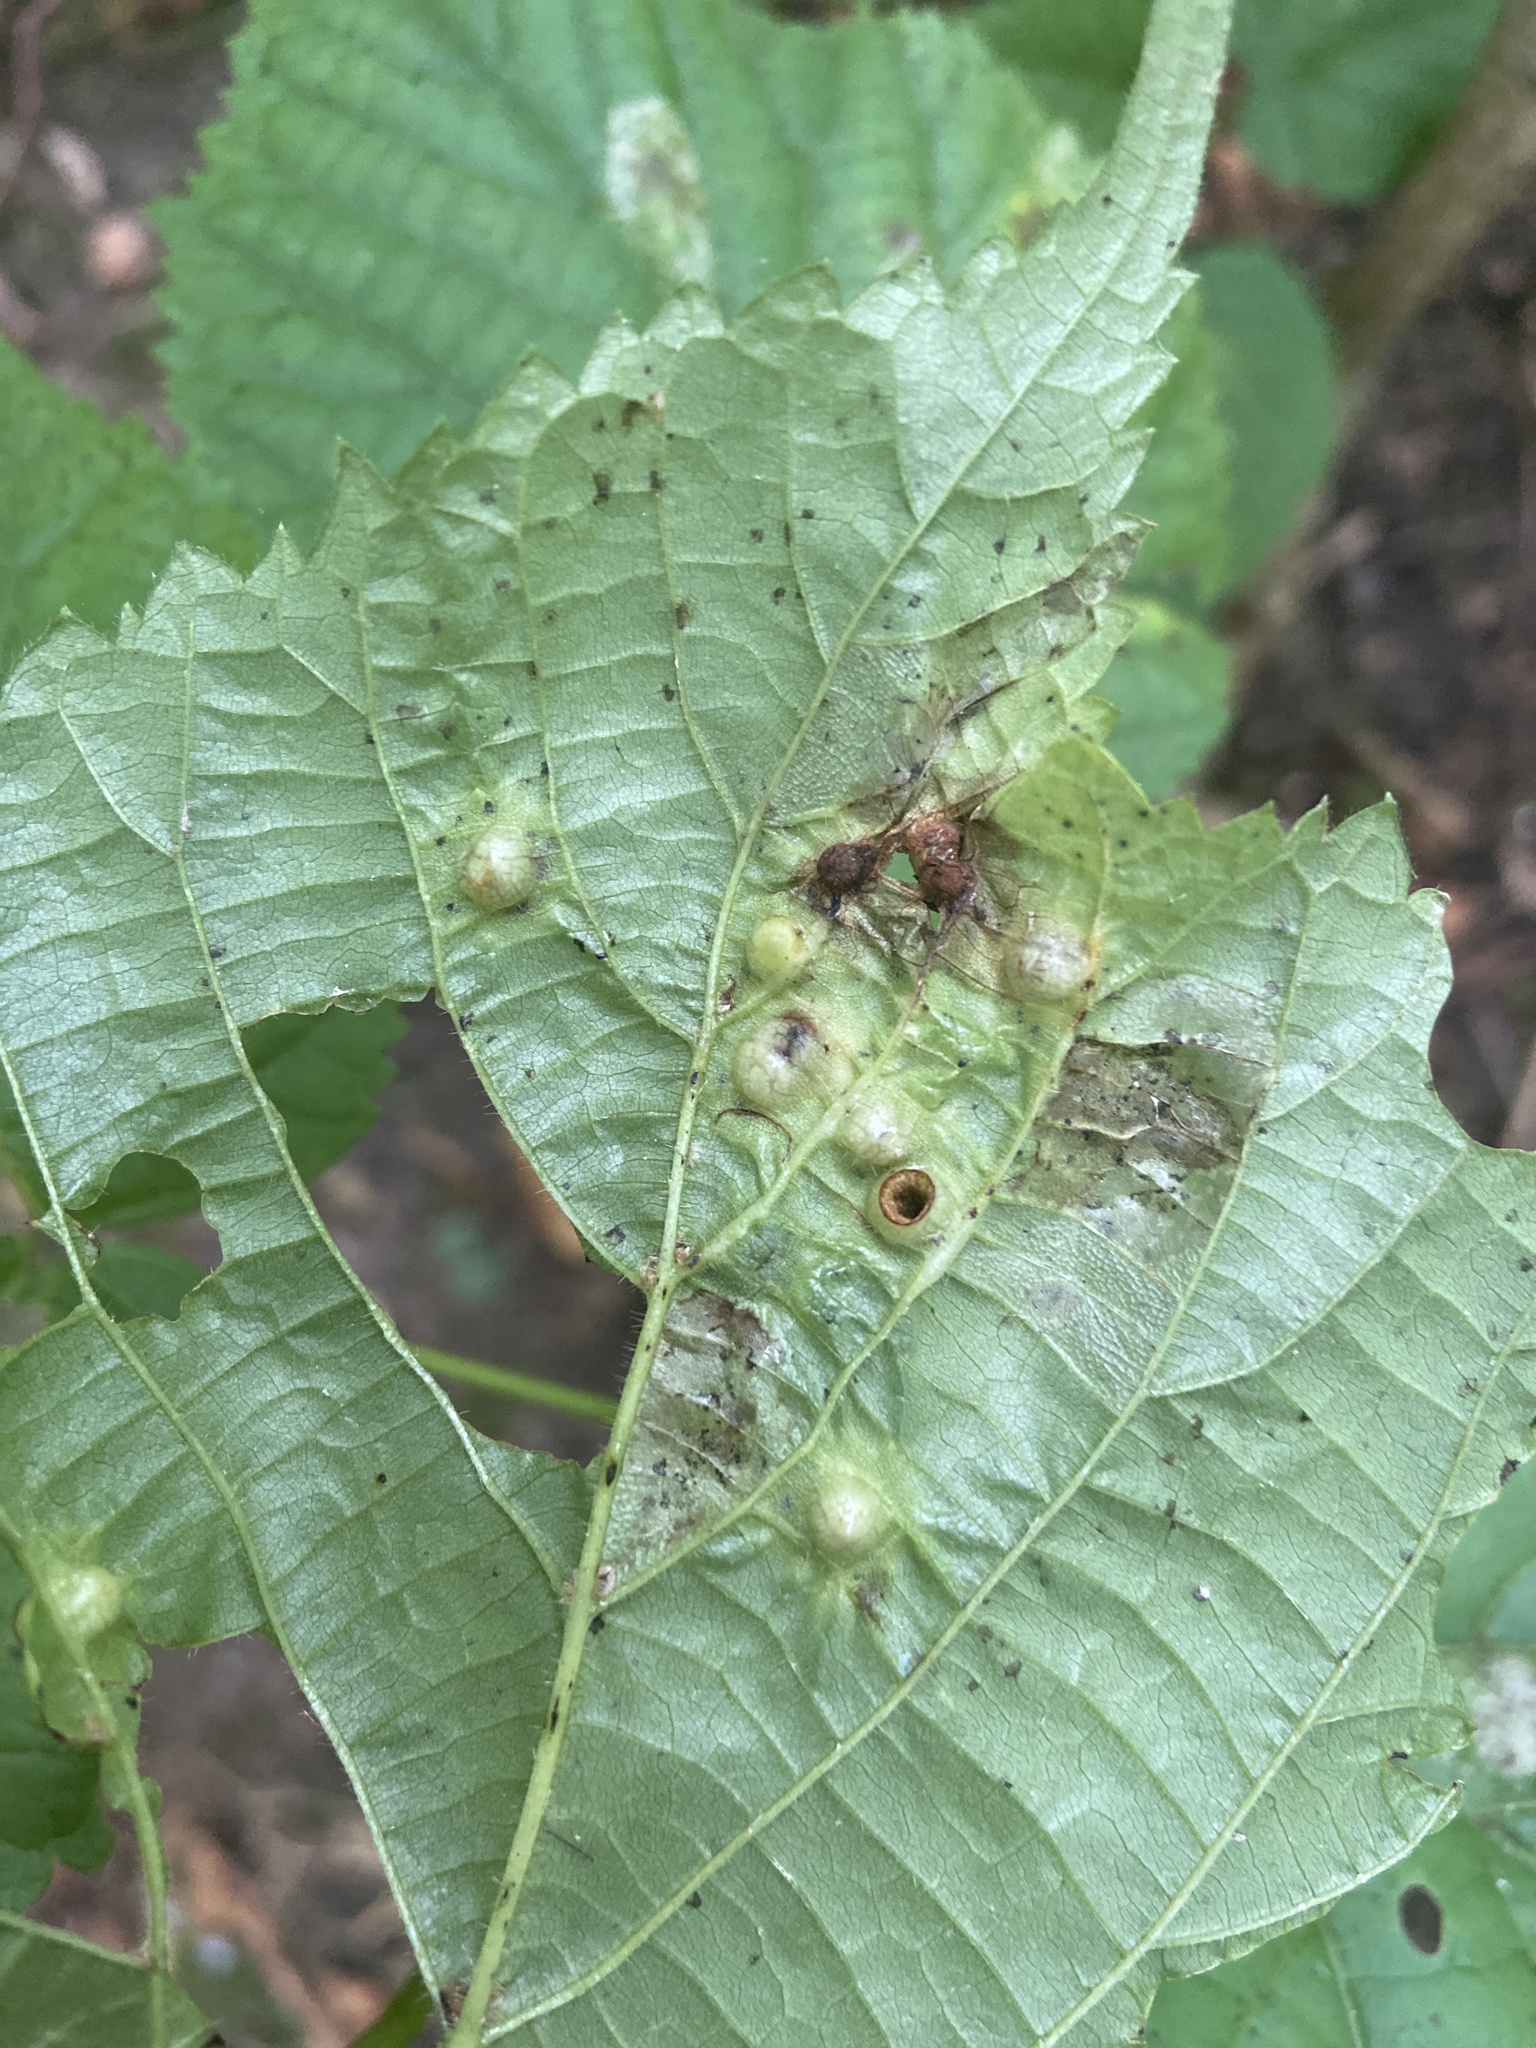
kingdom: Animalia
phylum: Arthropoda
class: Insecta
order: Diptera
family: Cecidomyiidae
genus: Didymomyia
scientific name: Didymomyia tiliacea
